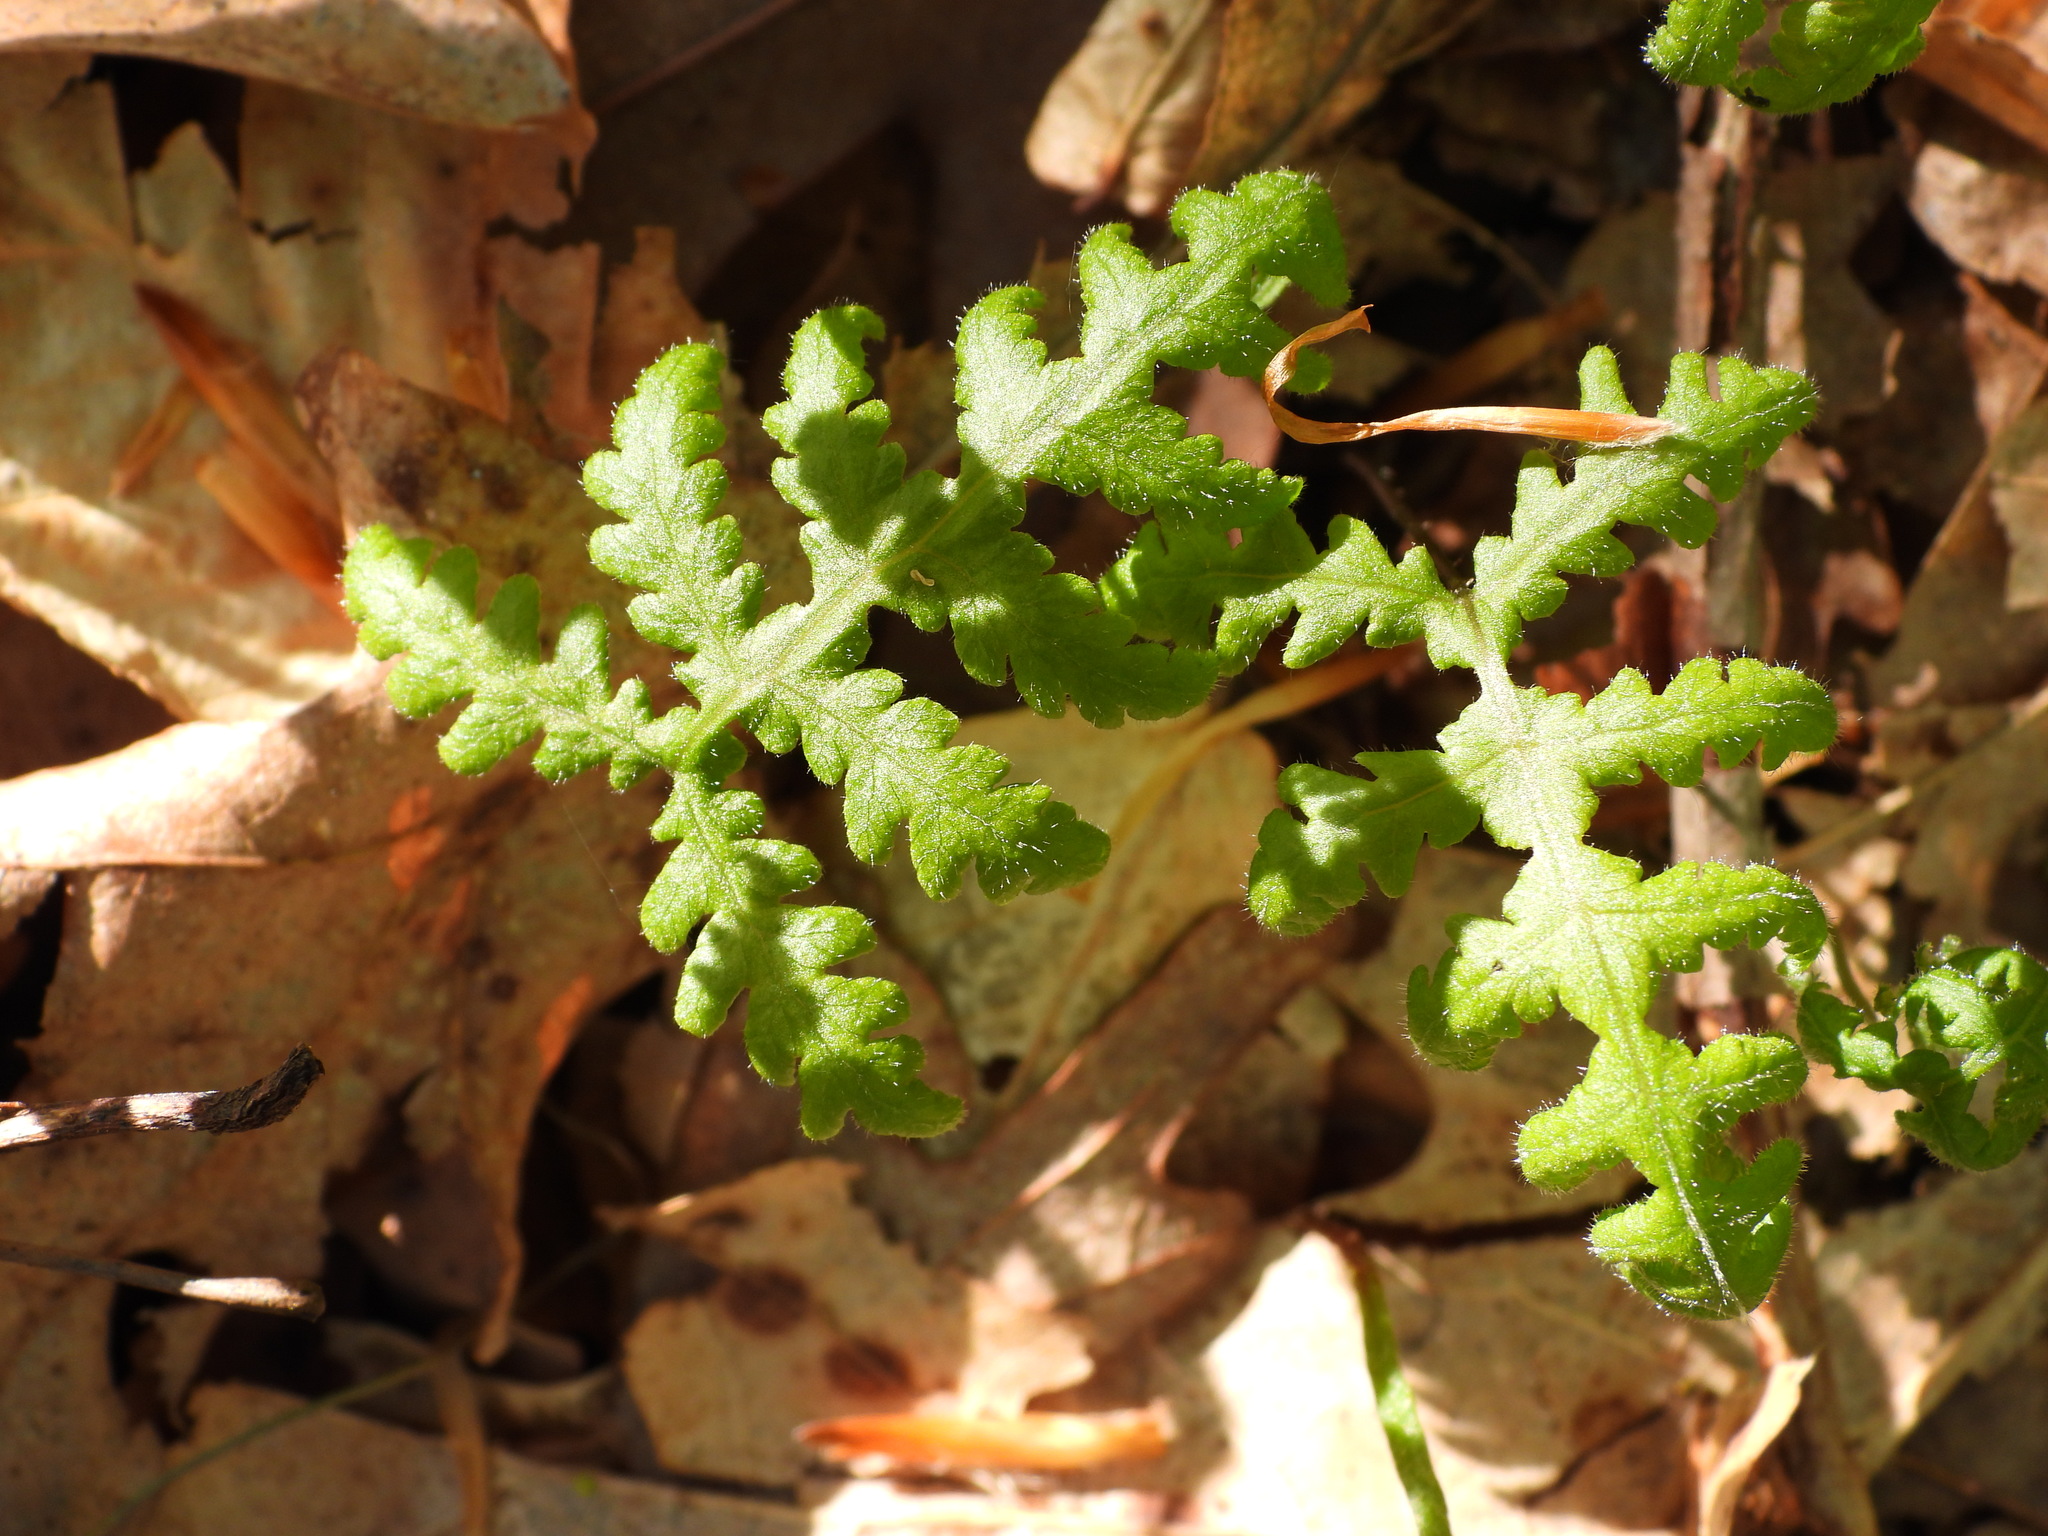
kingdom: Plantae
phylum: Tracheophyta
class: Polypodiopsida
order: Polypodiales
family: Thelypteridaceae
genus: Phegopteris
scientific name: Phegopteris hexagonoptera
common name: Broad beech fern
